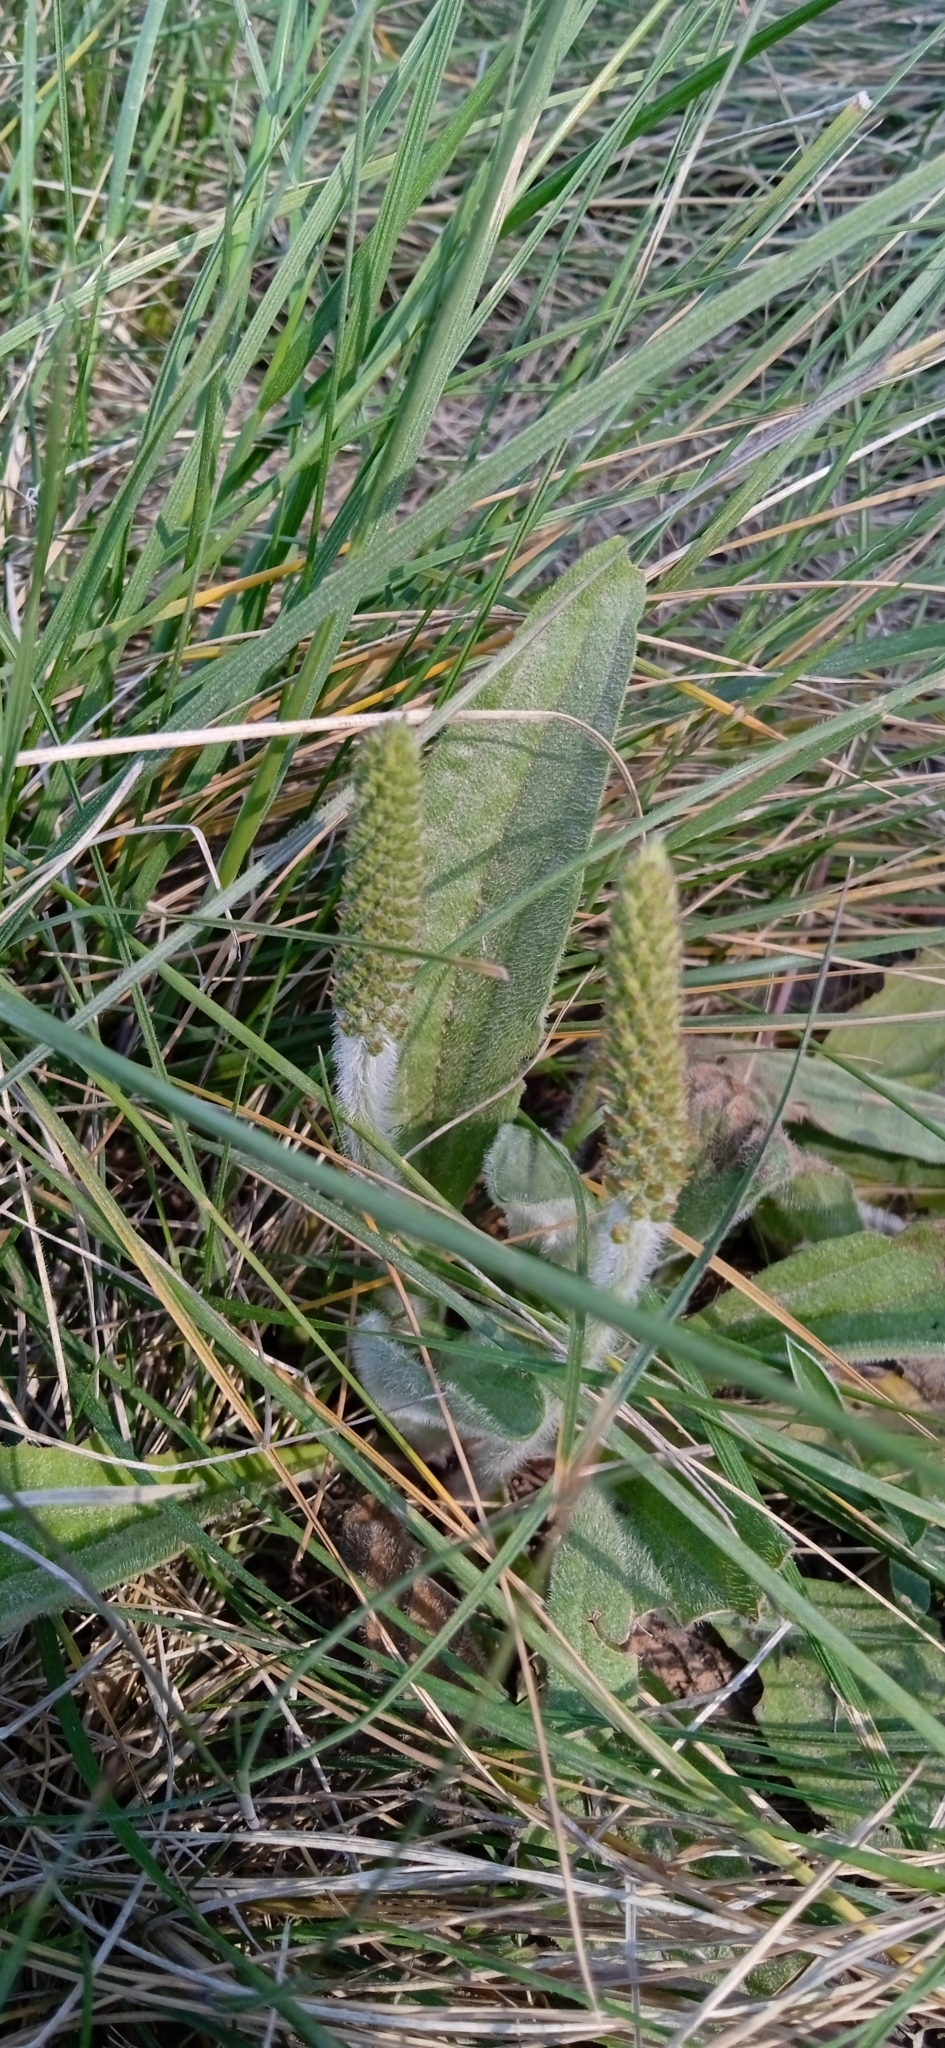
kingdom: Plantae
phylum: Tracheophyta
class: Magnoliopsida
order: Lamiales
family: Plantaginaceae
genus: Plantago
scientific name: Plantago tomentosa
